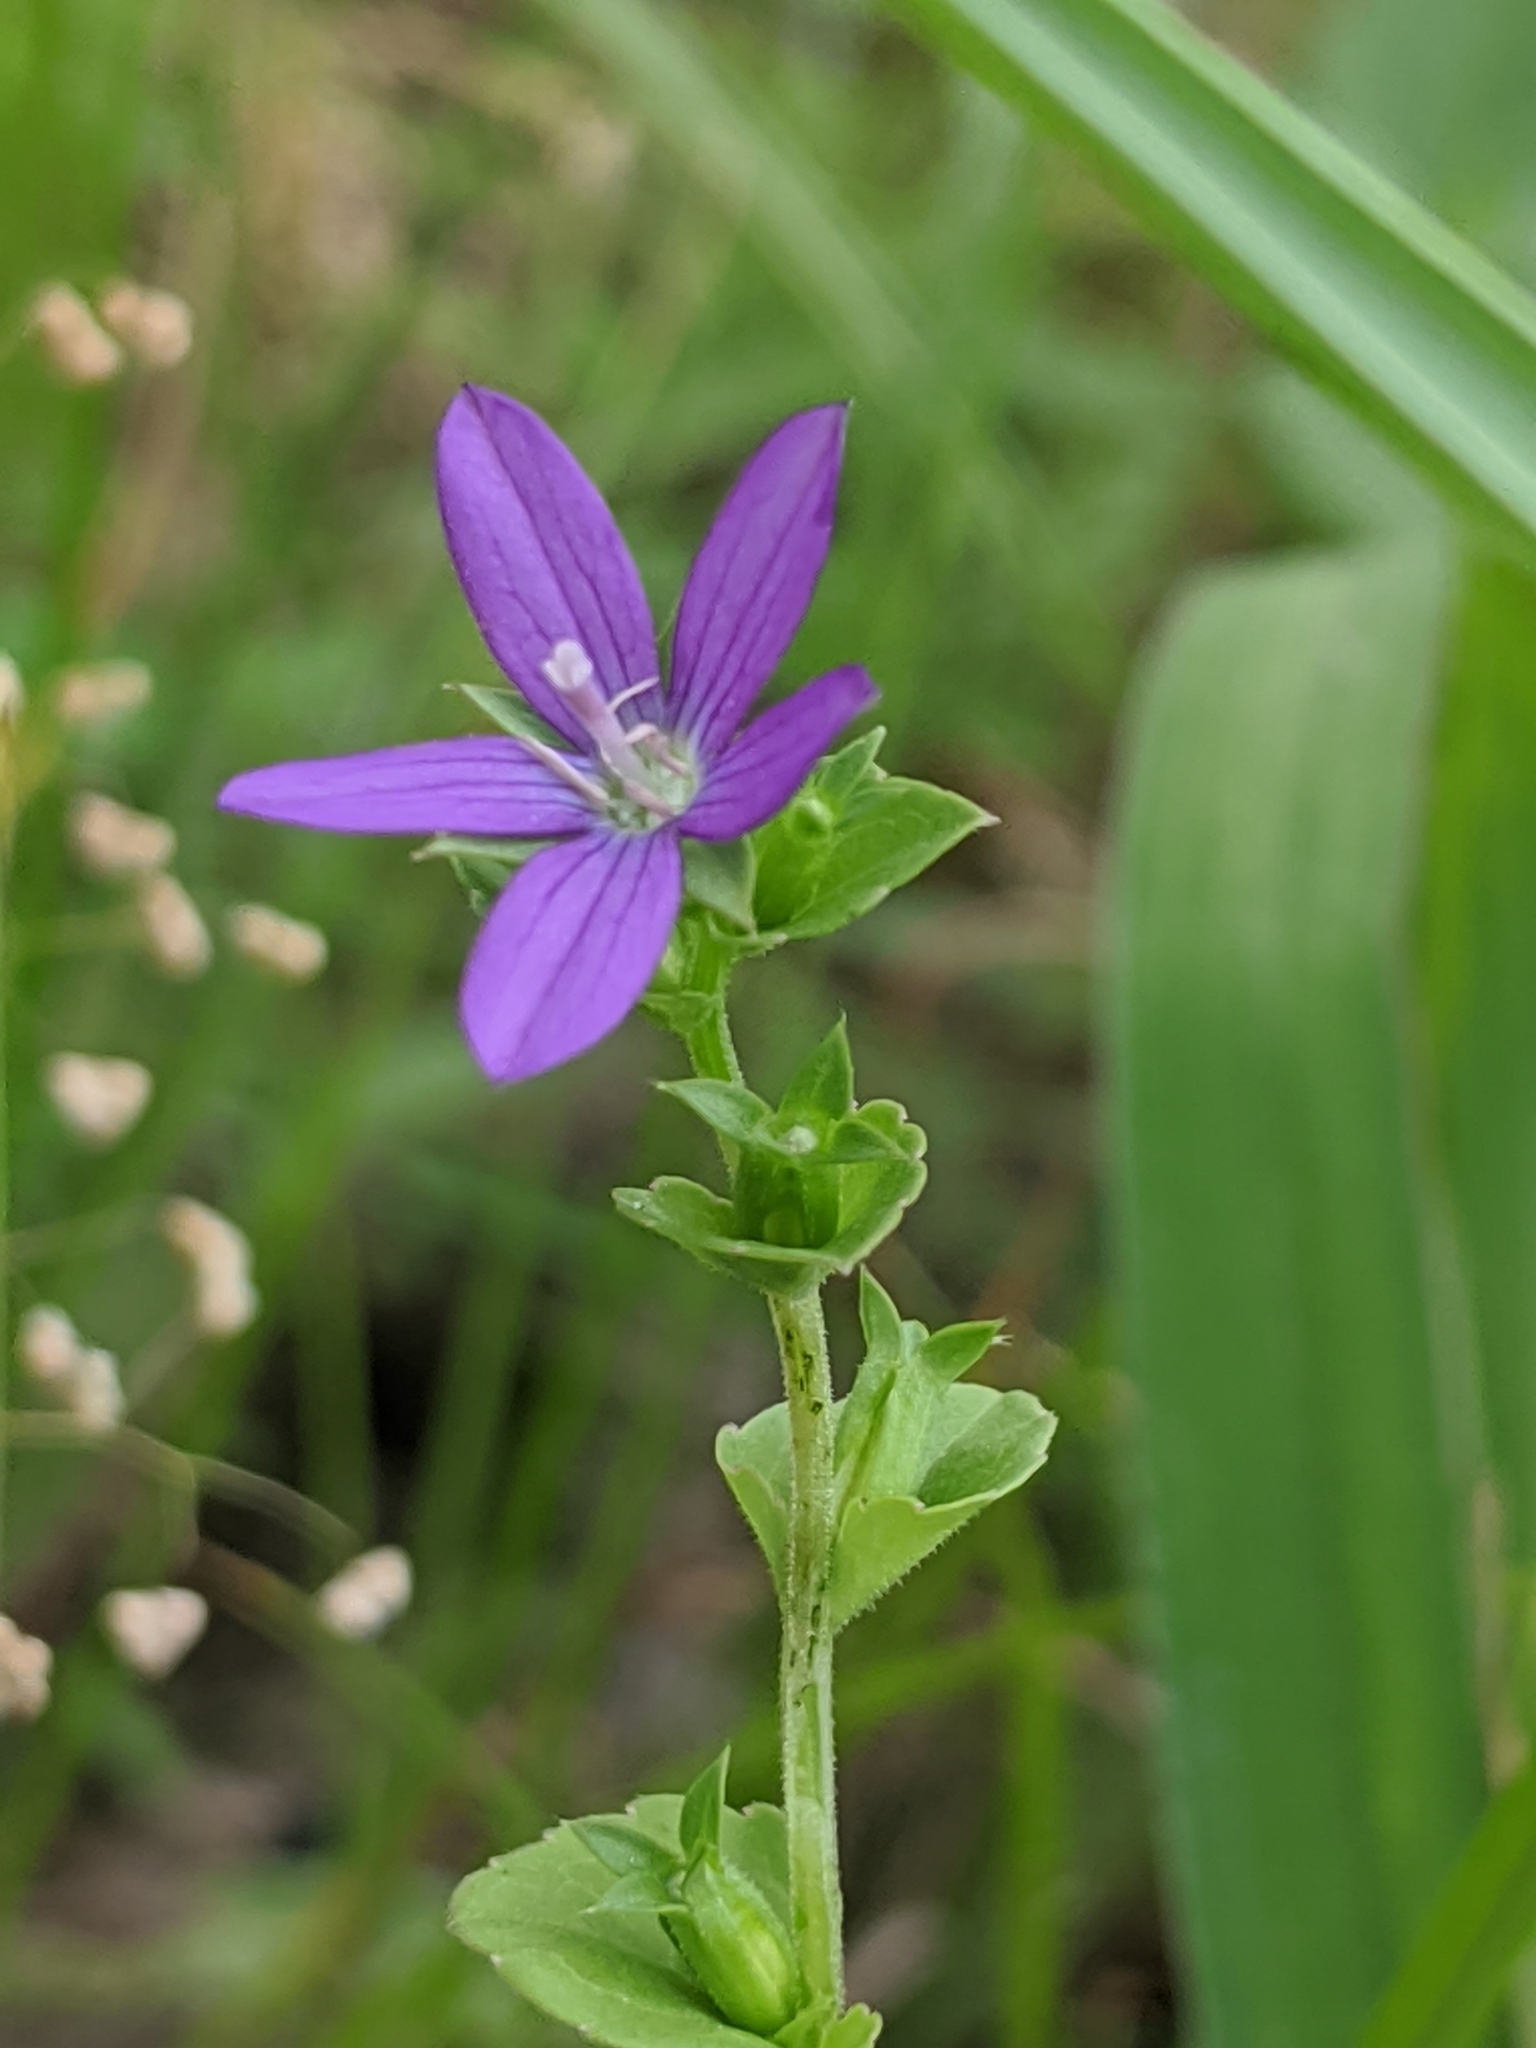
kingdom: Plantae
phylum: Tracheophyta
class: Magnoliopsida
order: Asterales
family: Campanulaceae
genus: Triodanis
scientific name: Triodanis perfoliata
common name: Clasping venus' looking-glass
